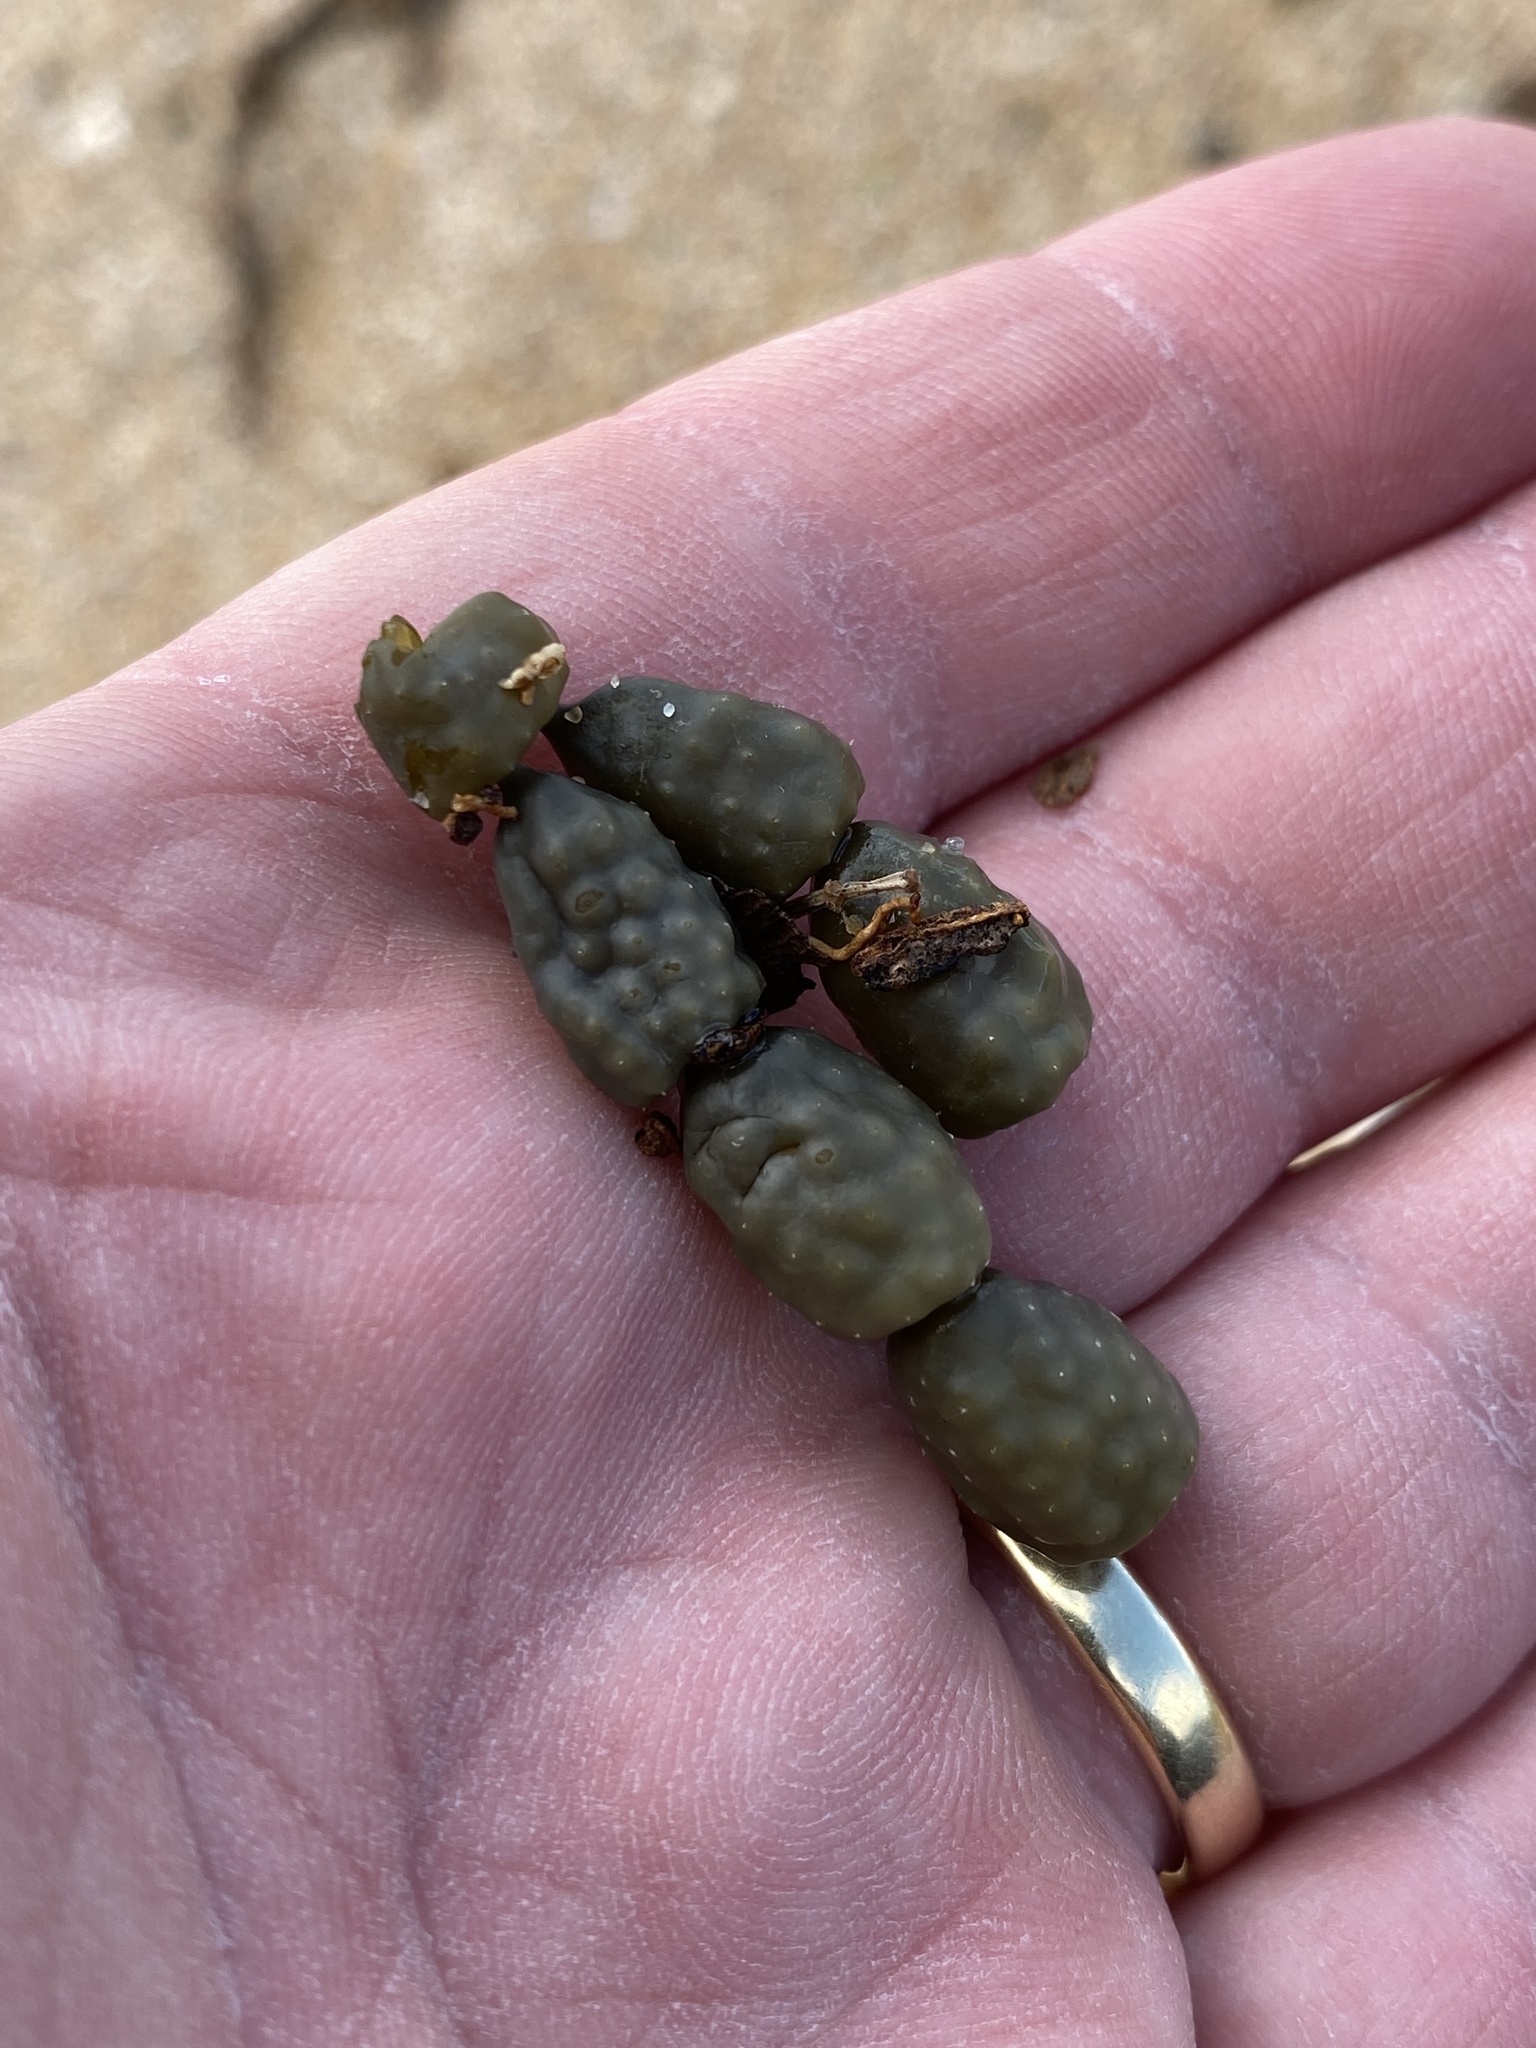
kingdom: Chromista
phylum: Ochrophyta
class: Phaeophyceae
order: Fucales
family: Hormosiraceae
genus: Hormosira
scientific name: Hormosira banksii
